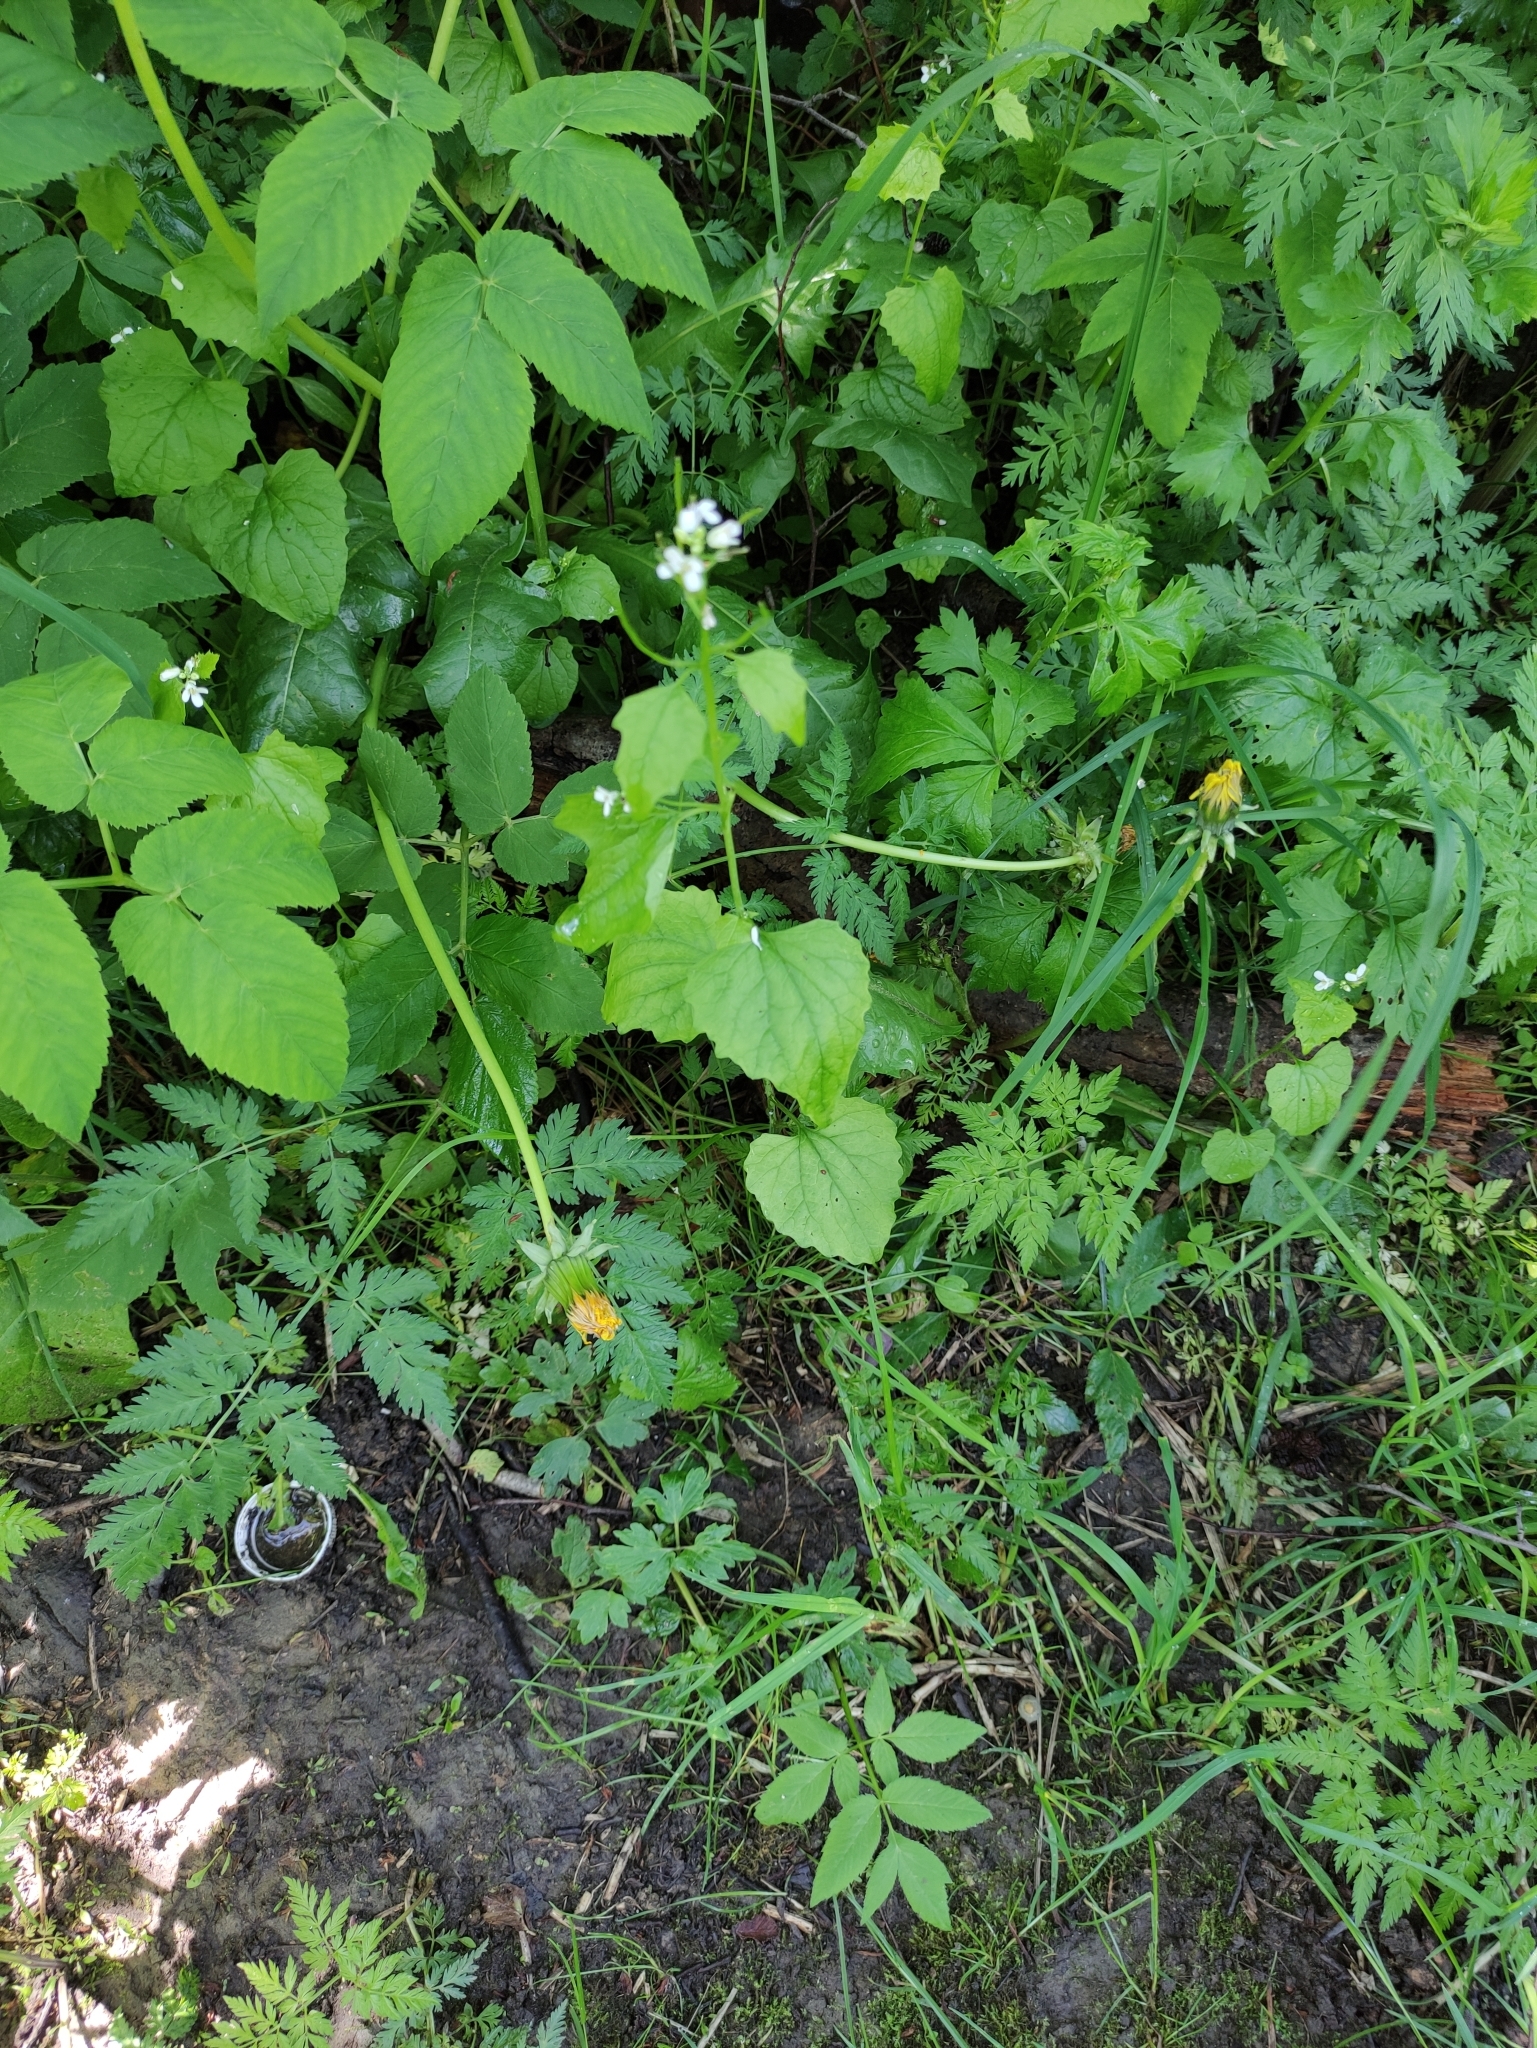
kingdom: Plantae
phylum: Tracheophyta
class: Magnoliopsida
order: Brassicales
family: Brassicaceae
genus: Alliaria
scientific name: Alliaria petiolata
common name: Garlic mustard
